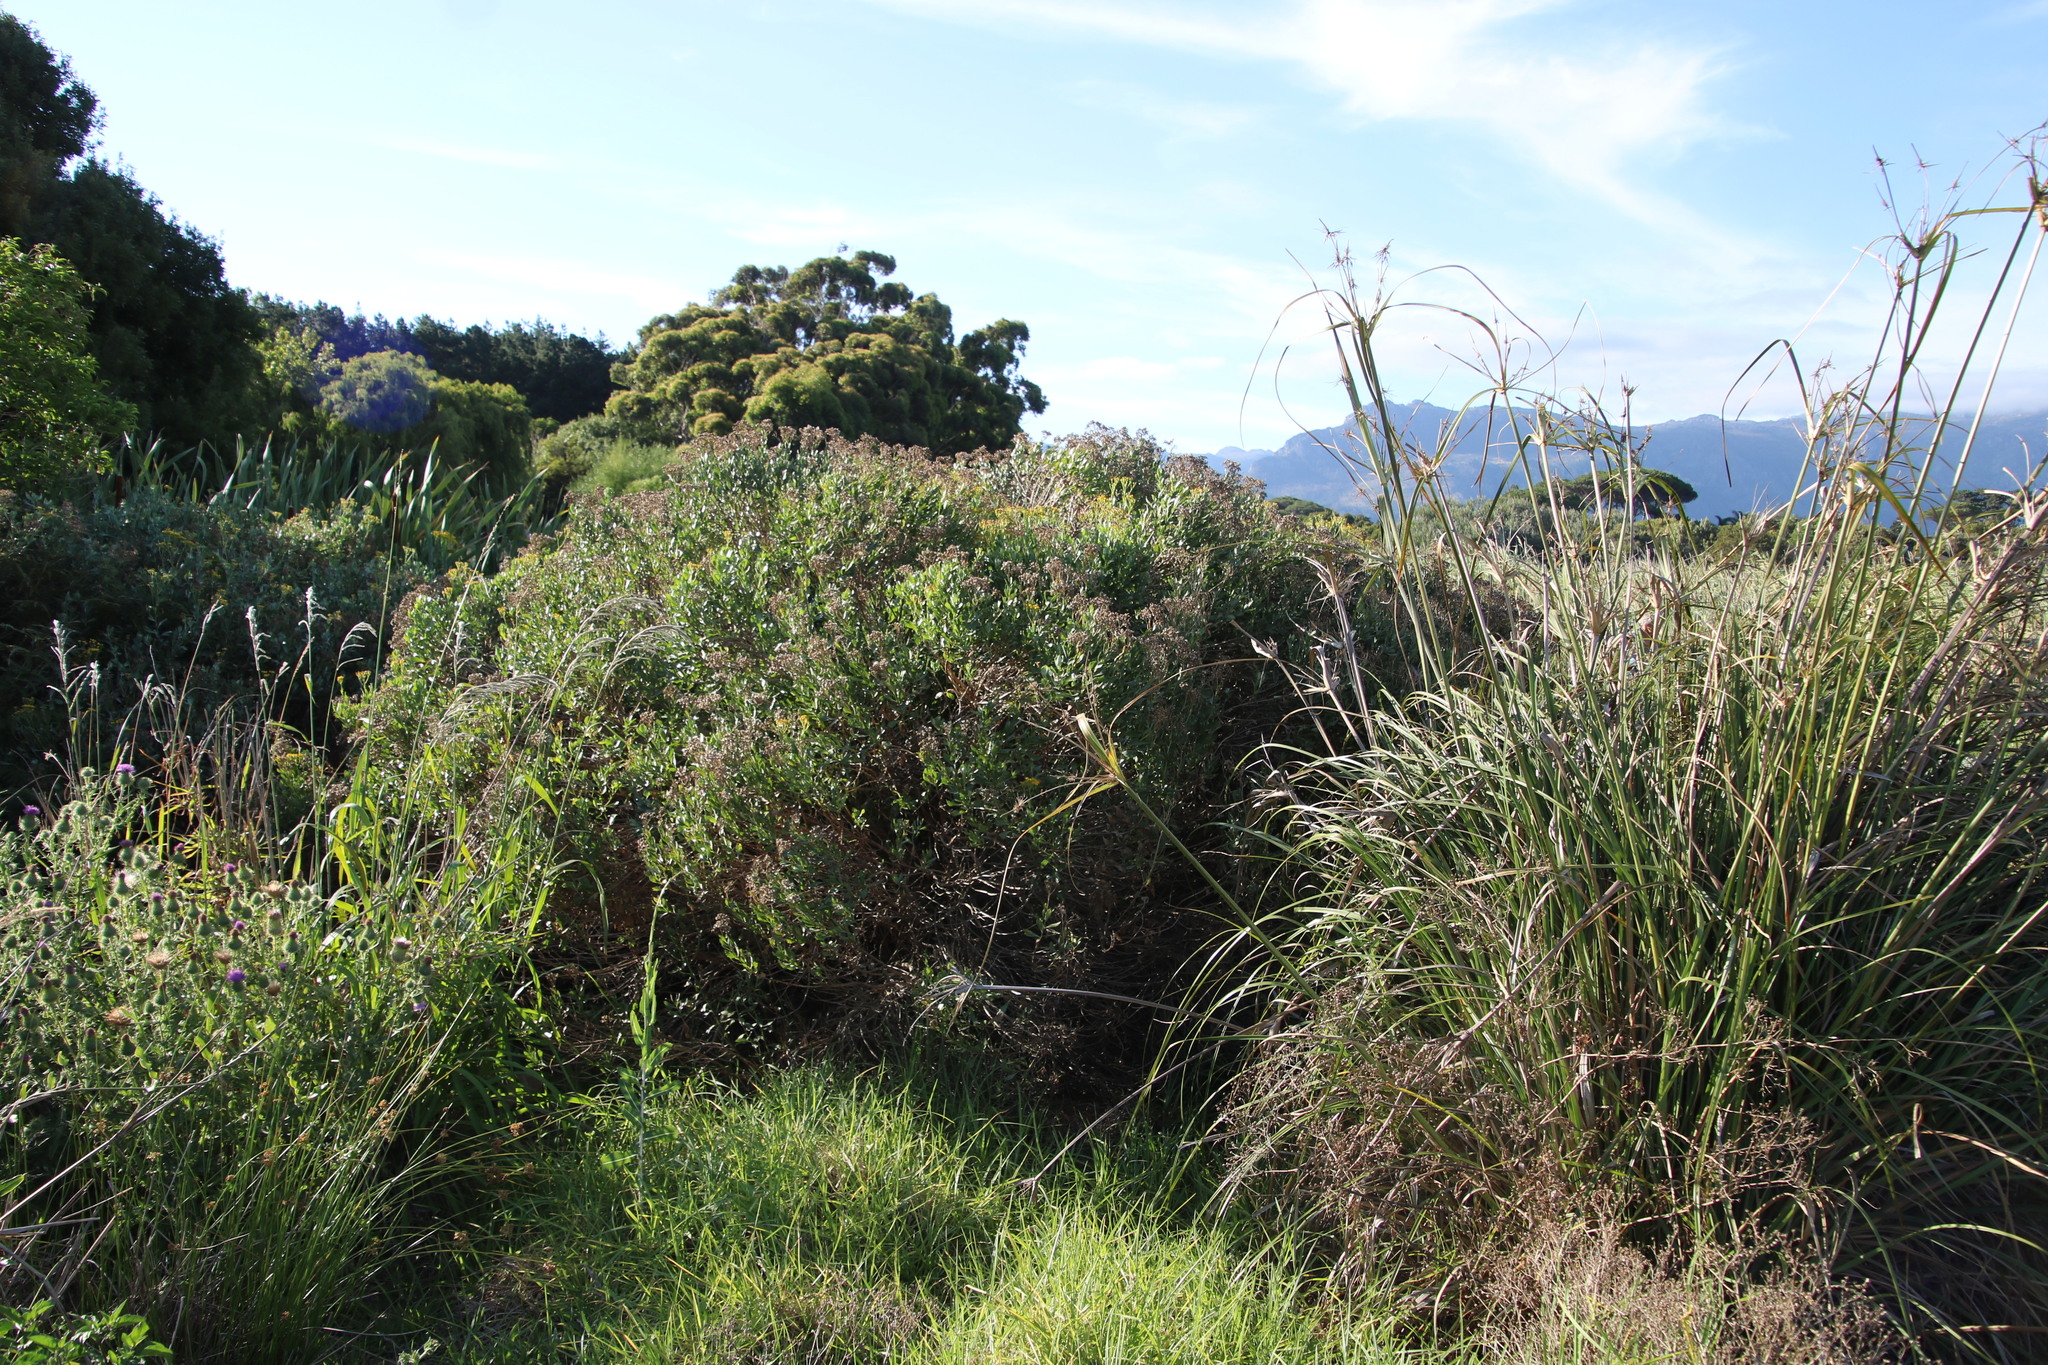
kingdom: Plantae
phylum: Tracheophyta
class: Magnoliopsida
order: Asterales
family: Asteraceae
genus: Senecio
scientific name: Senecio halimifolius
